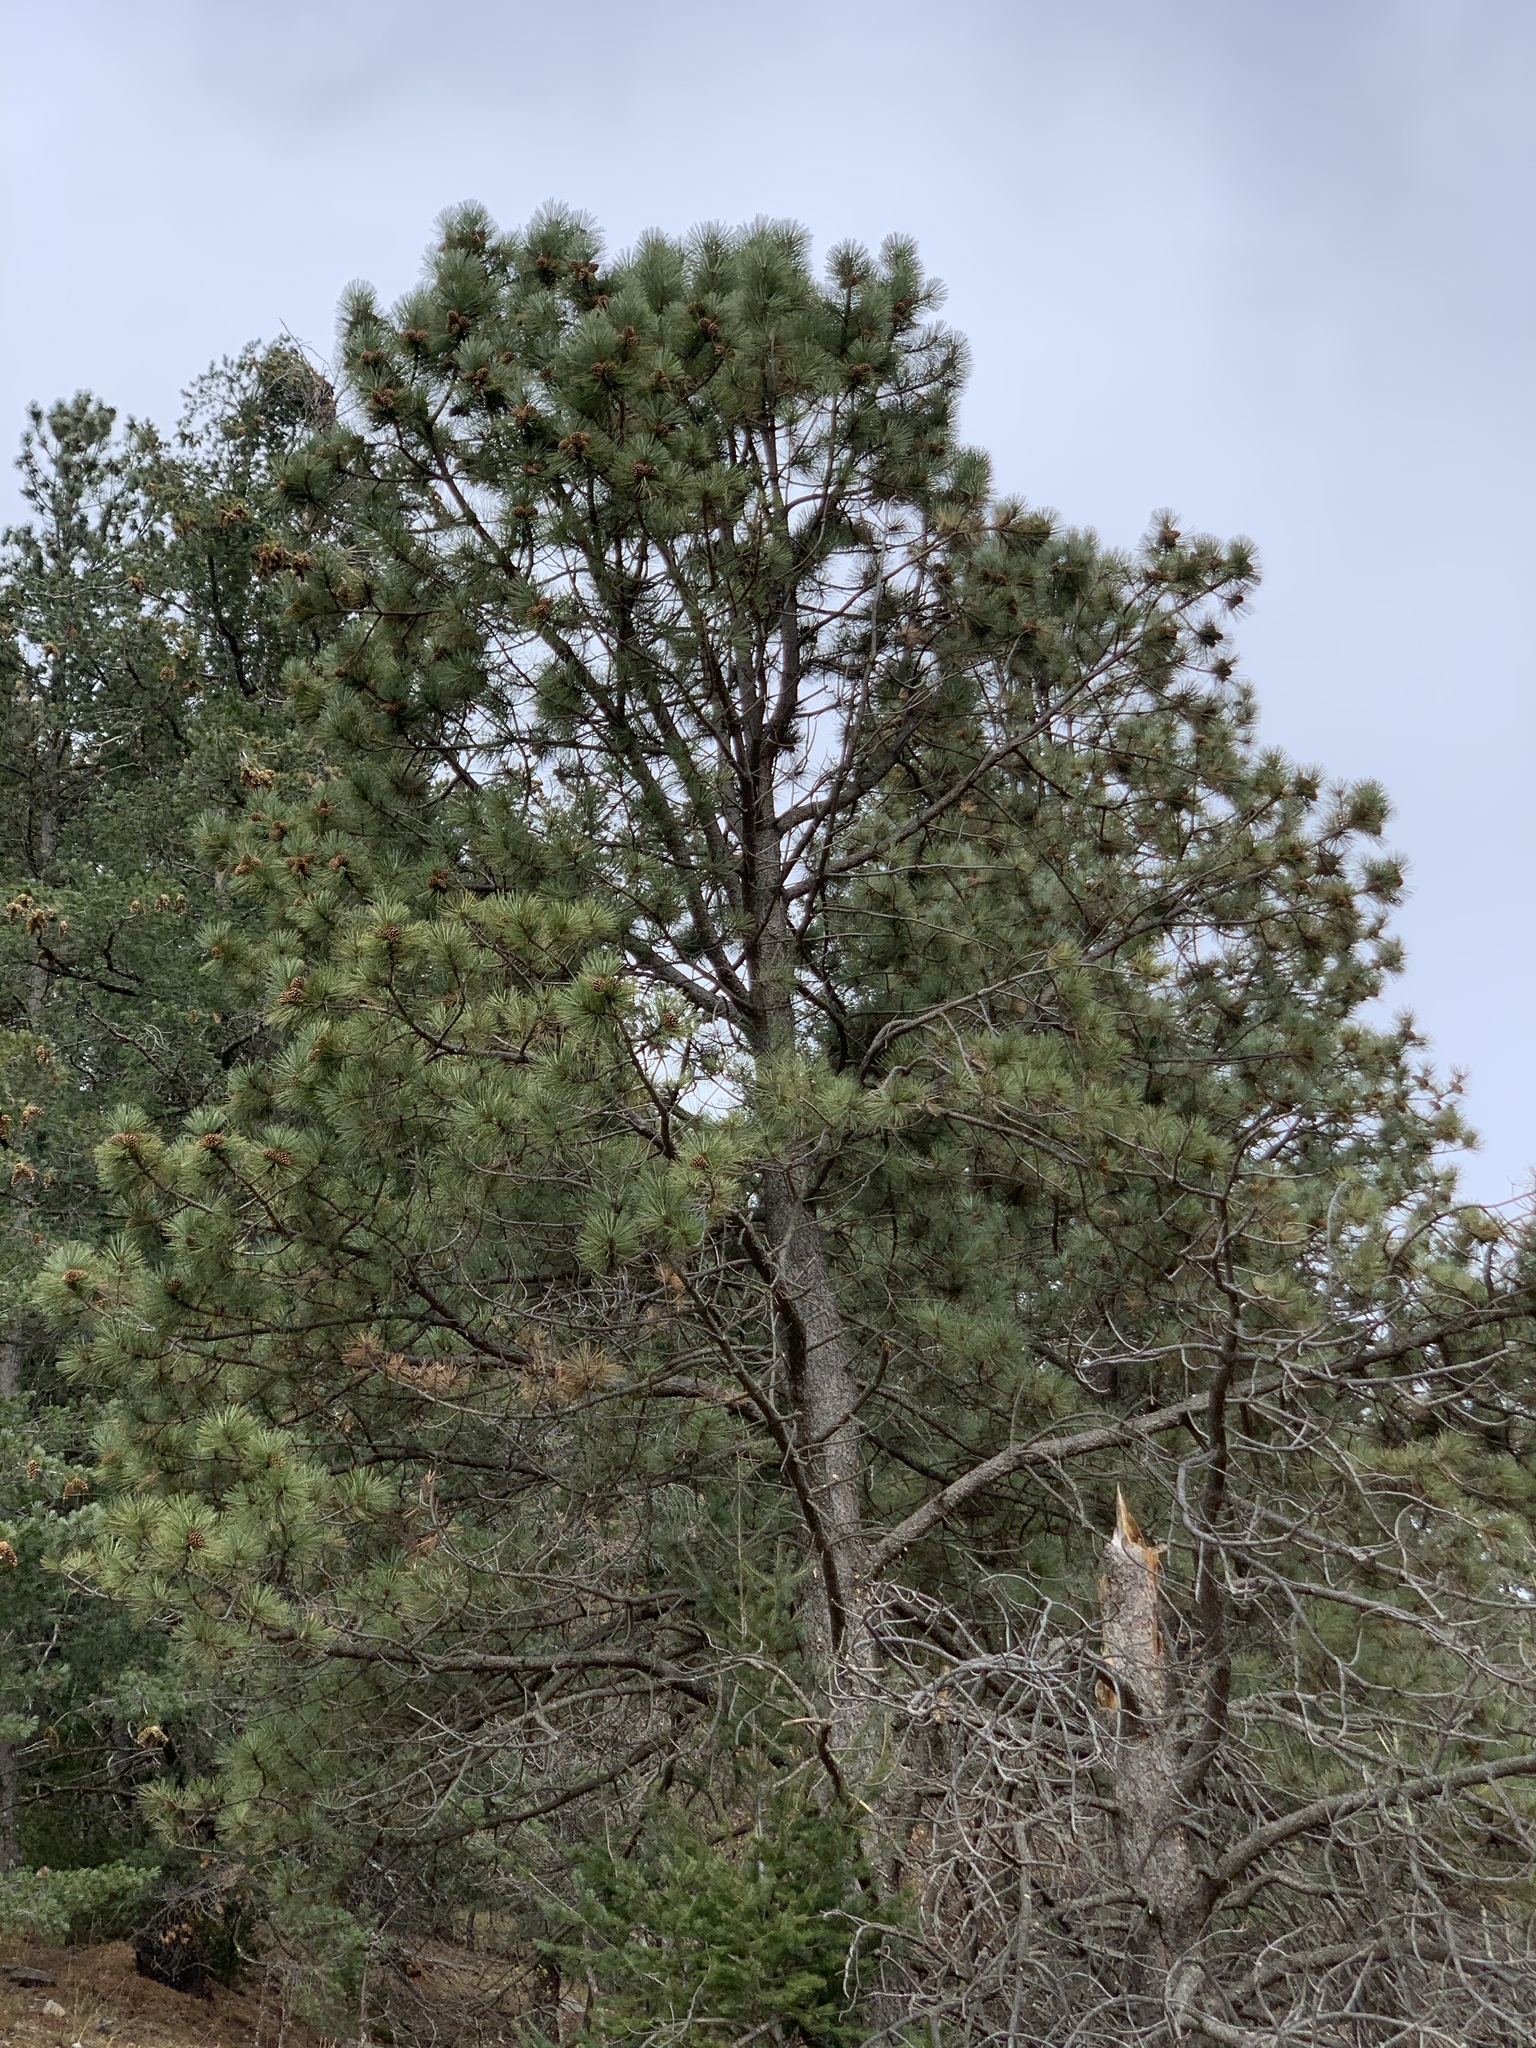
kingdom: Plantae
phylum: Tracheophyta
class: Pinopsida
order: Pinales
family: Pinaceae
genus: Pinus
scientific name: Pinus ponderosa
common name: Western yellow-pine
